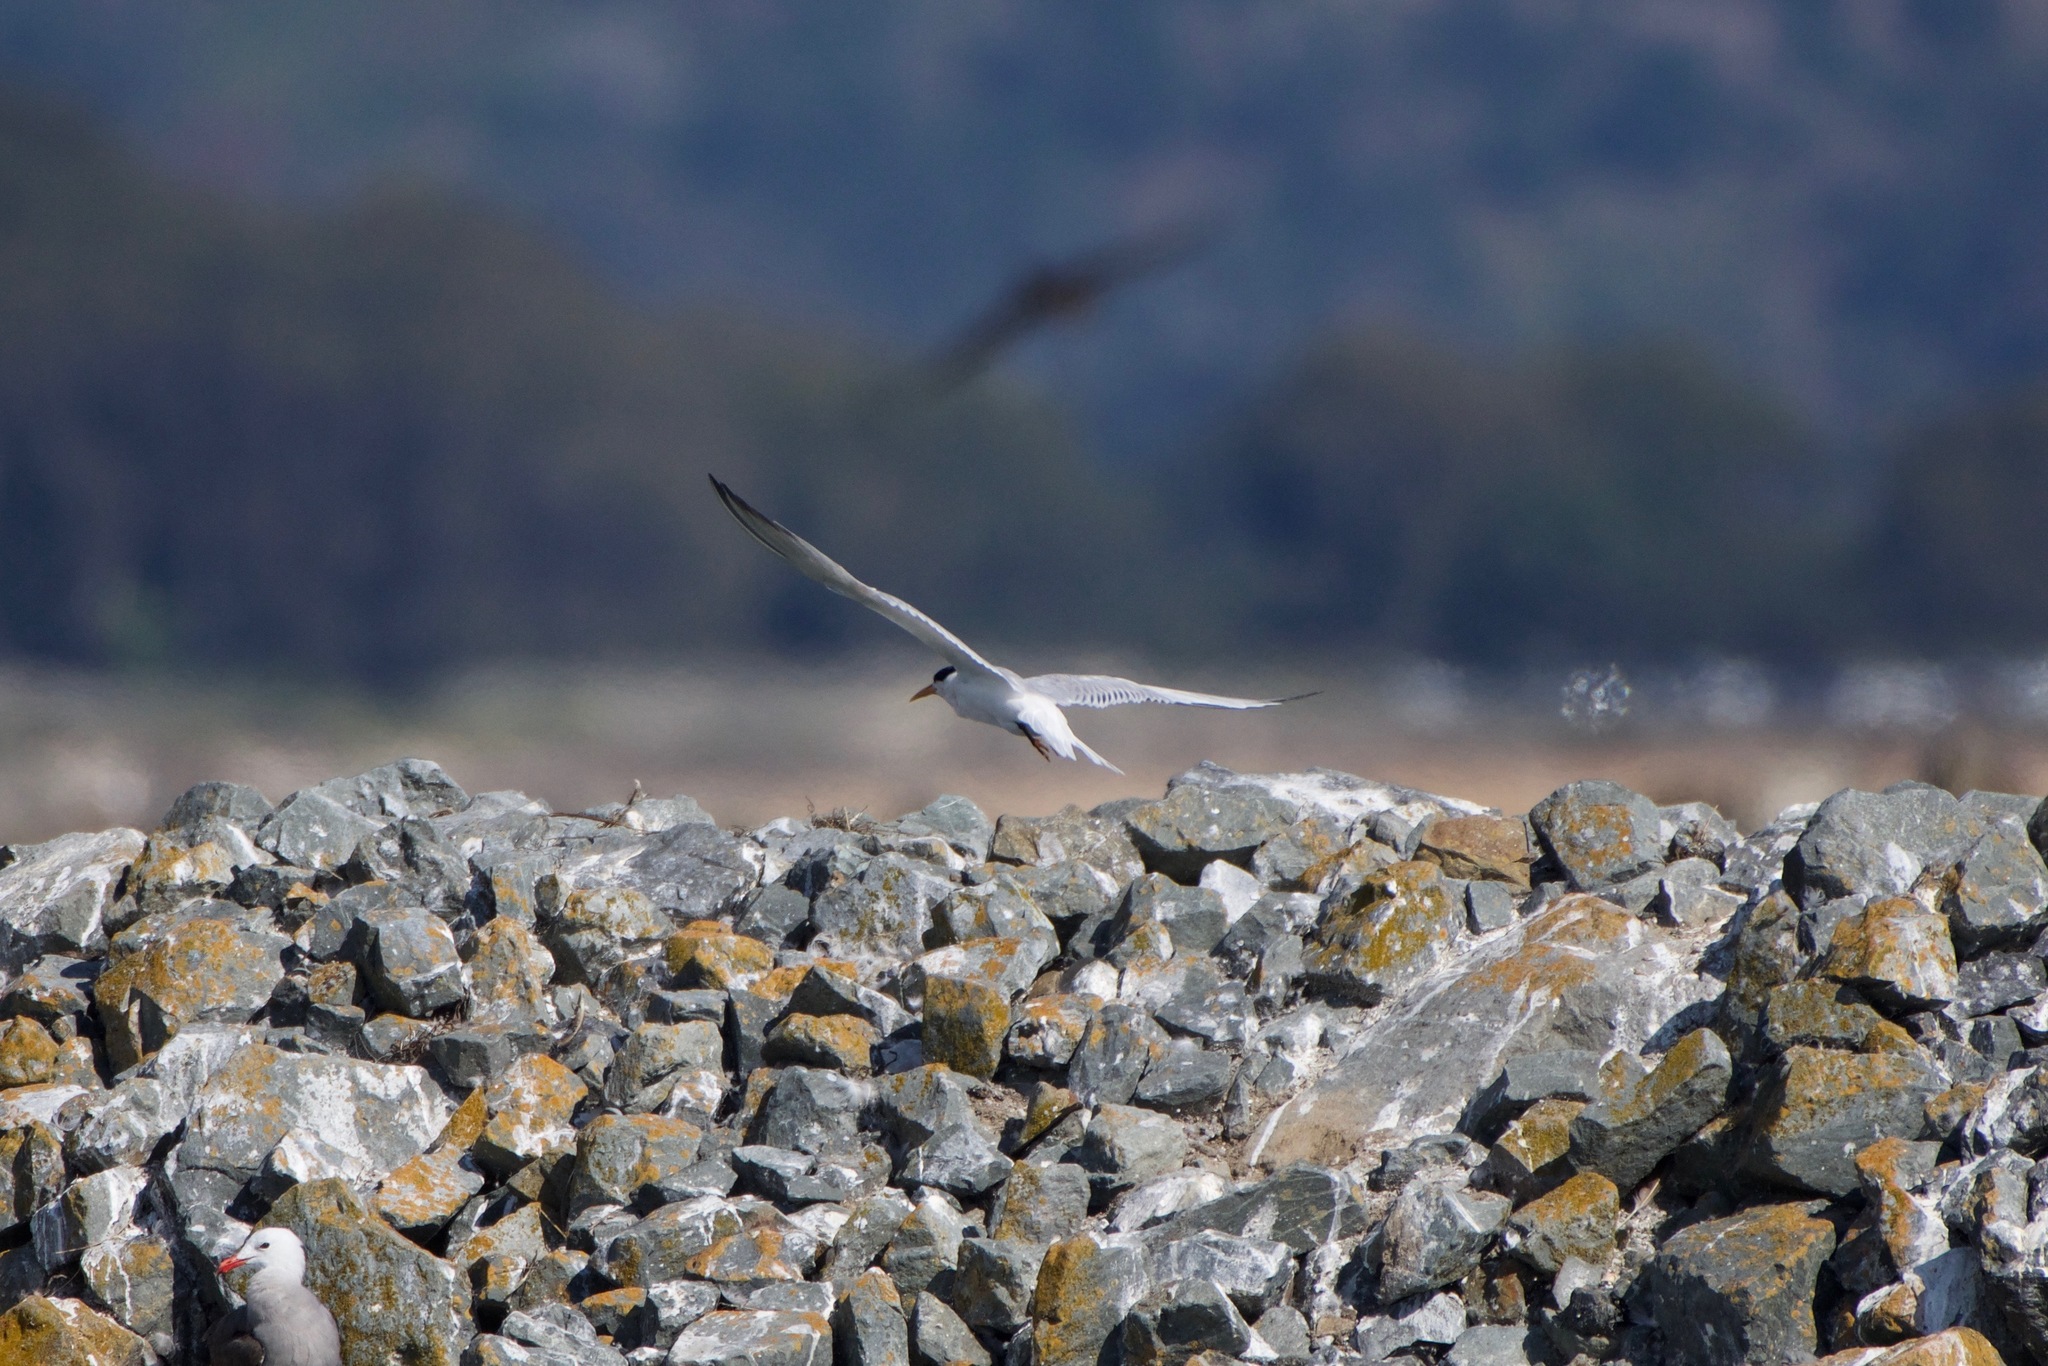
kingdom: Animalia
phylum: Chordata
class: Aves
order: Charadriiformes
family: Laridae
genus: Thalasseus
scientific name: Thalasseus elegans
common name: Elegant tern
